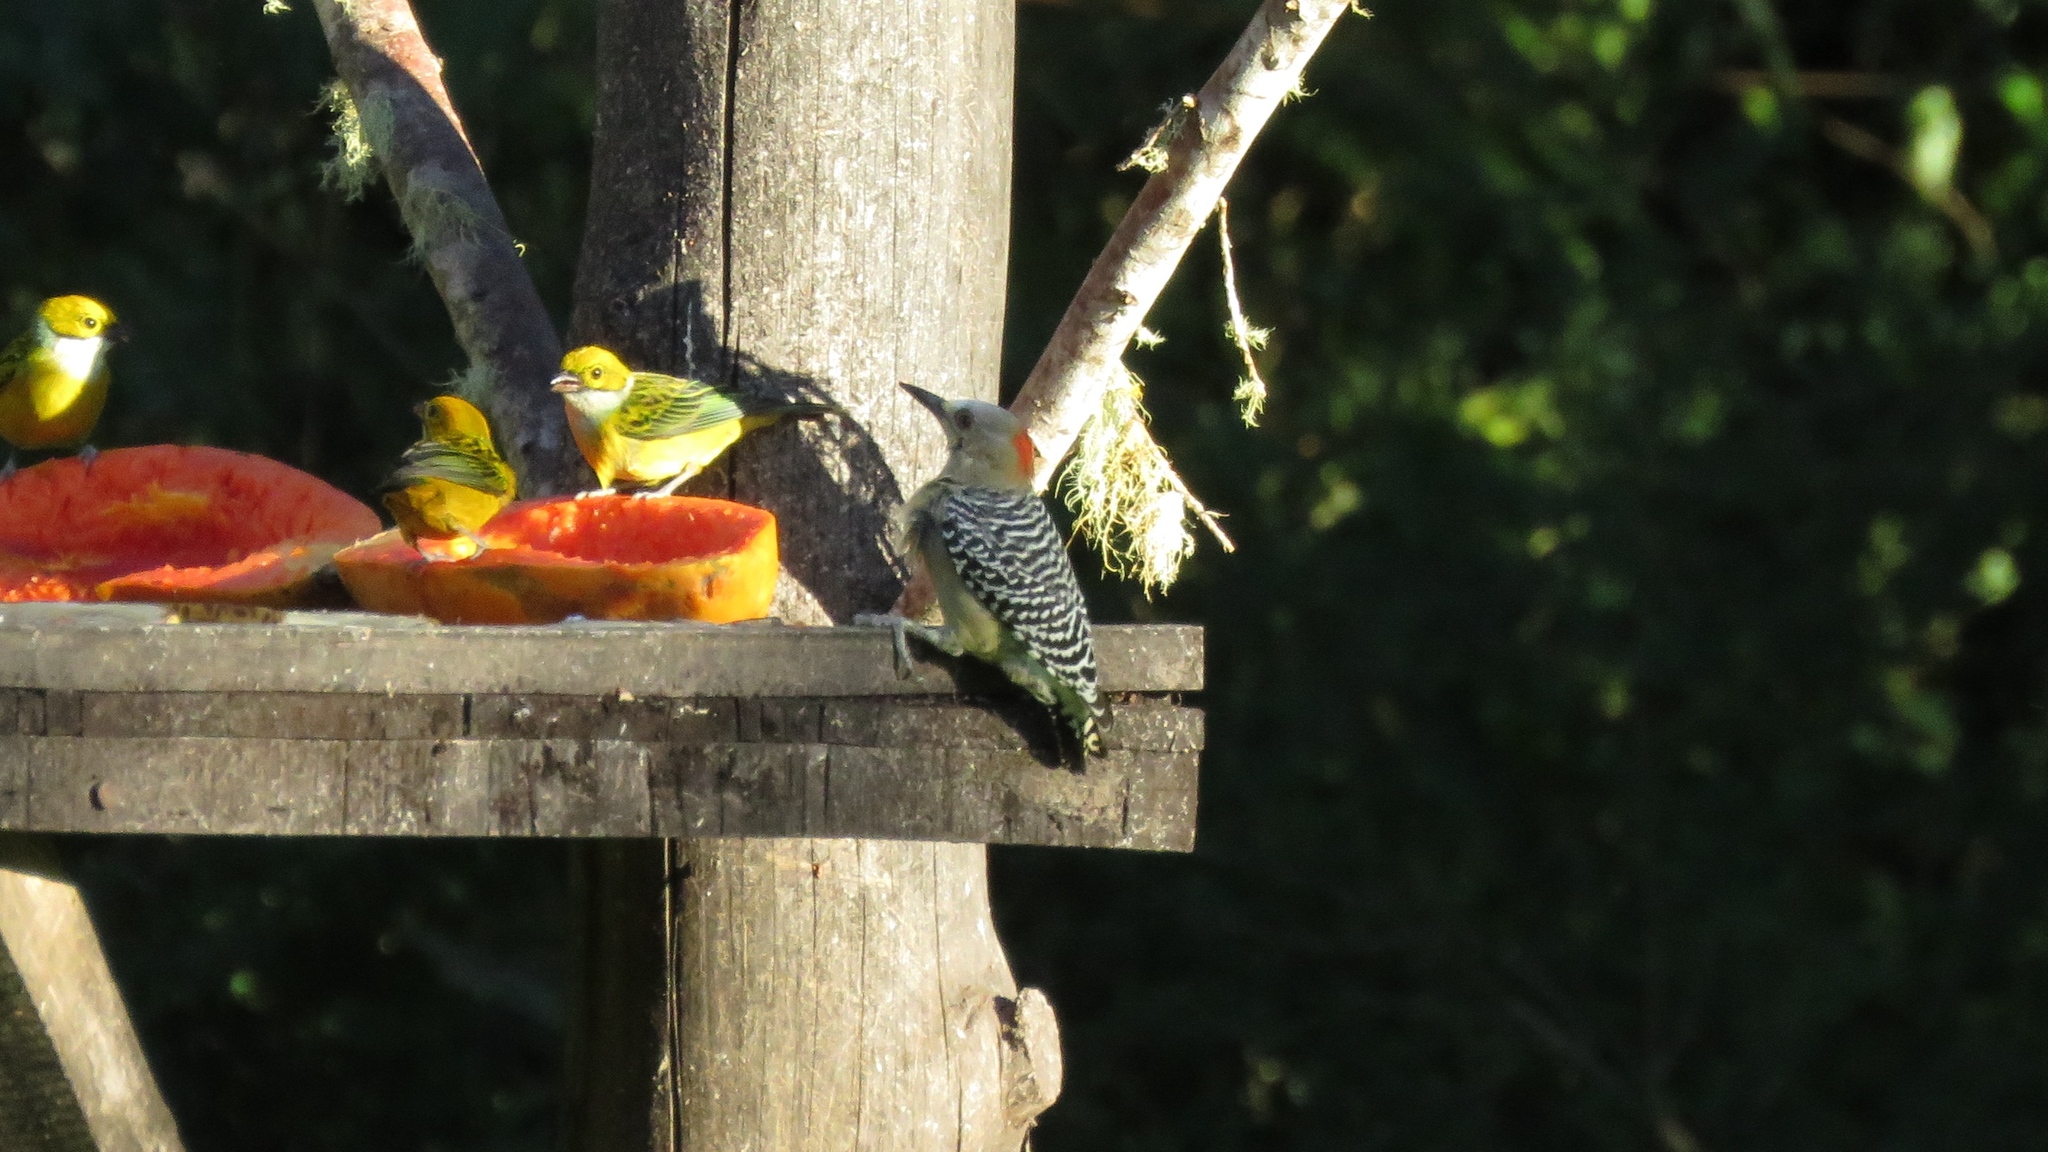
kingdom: Animalia
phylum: Chordata
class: Aves
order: Piciformes
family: Picidae
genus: Melanerpes
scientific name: Melanerpes rubricapillus
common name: Red-crowned woodpecker
